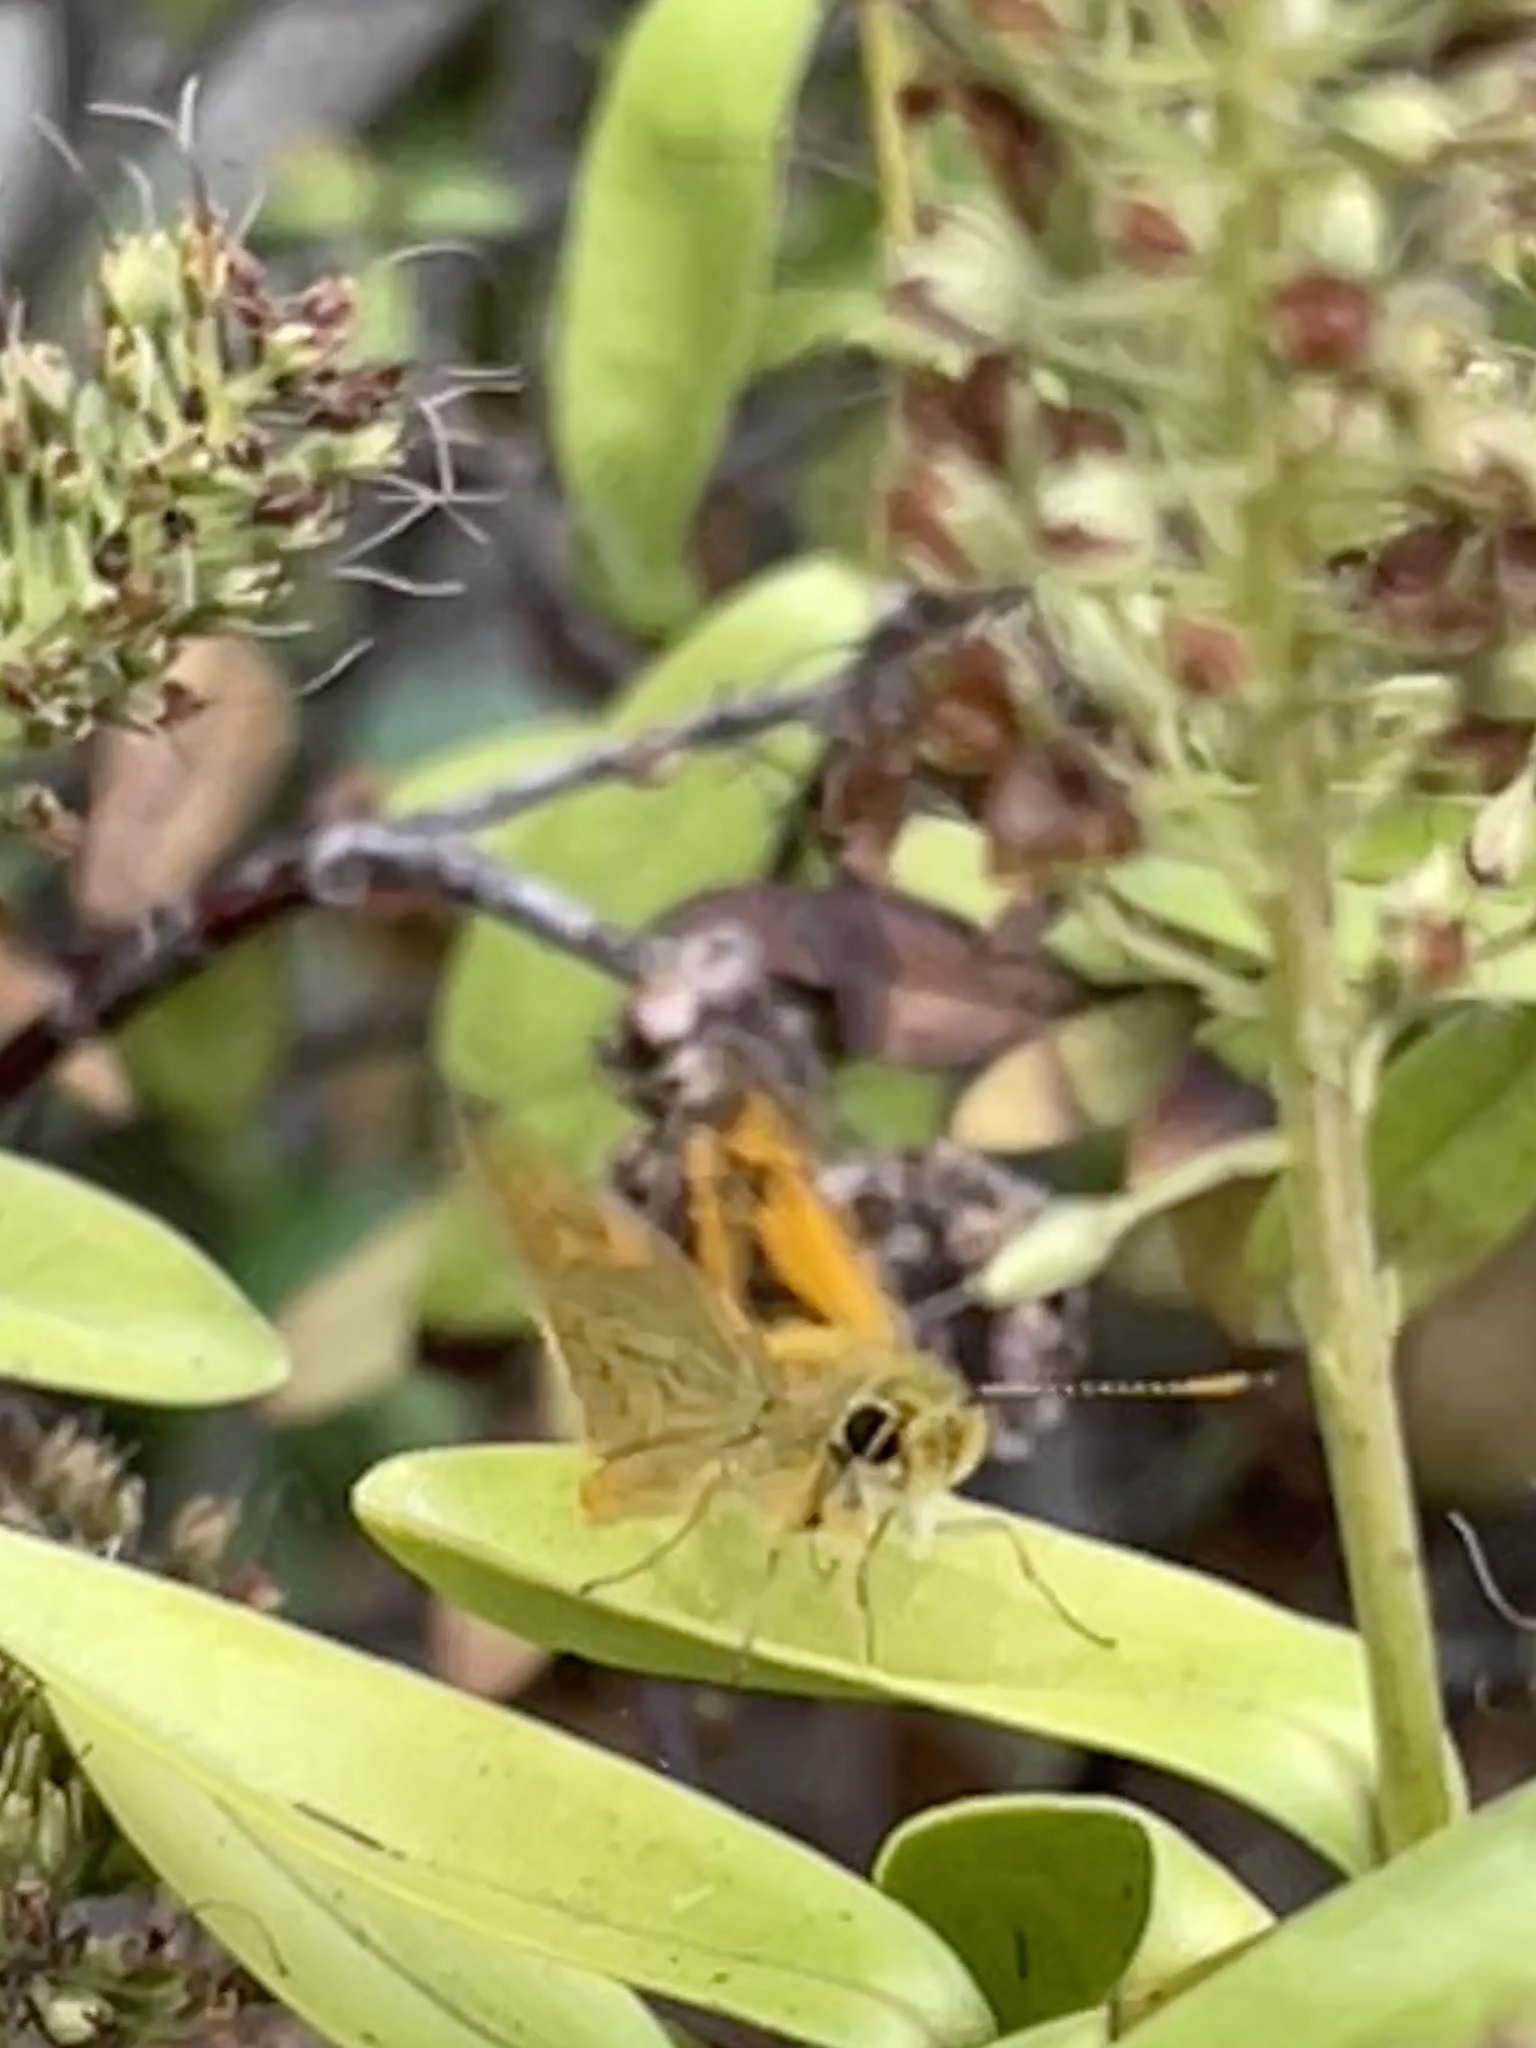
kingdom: Animalia
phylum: Arthropoda
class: Insecta
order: Lepidoptera
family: Hesperiidae
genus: Ocybadistes
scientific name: Ocybadistes walkeri
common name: Yellow-banded dart
